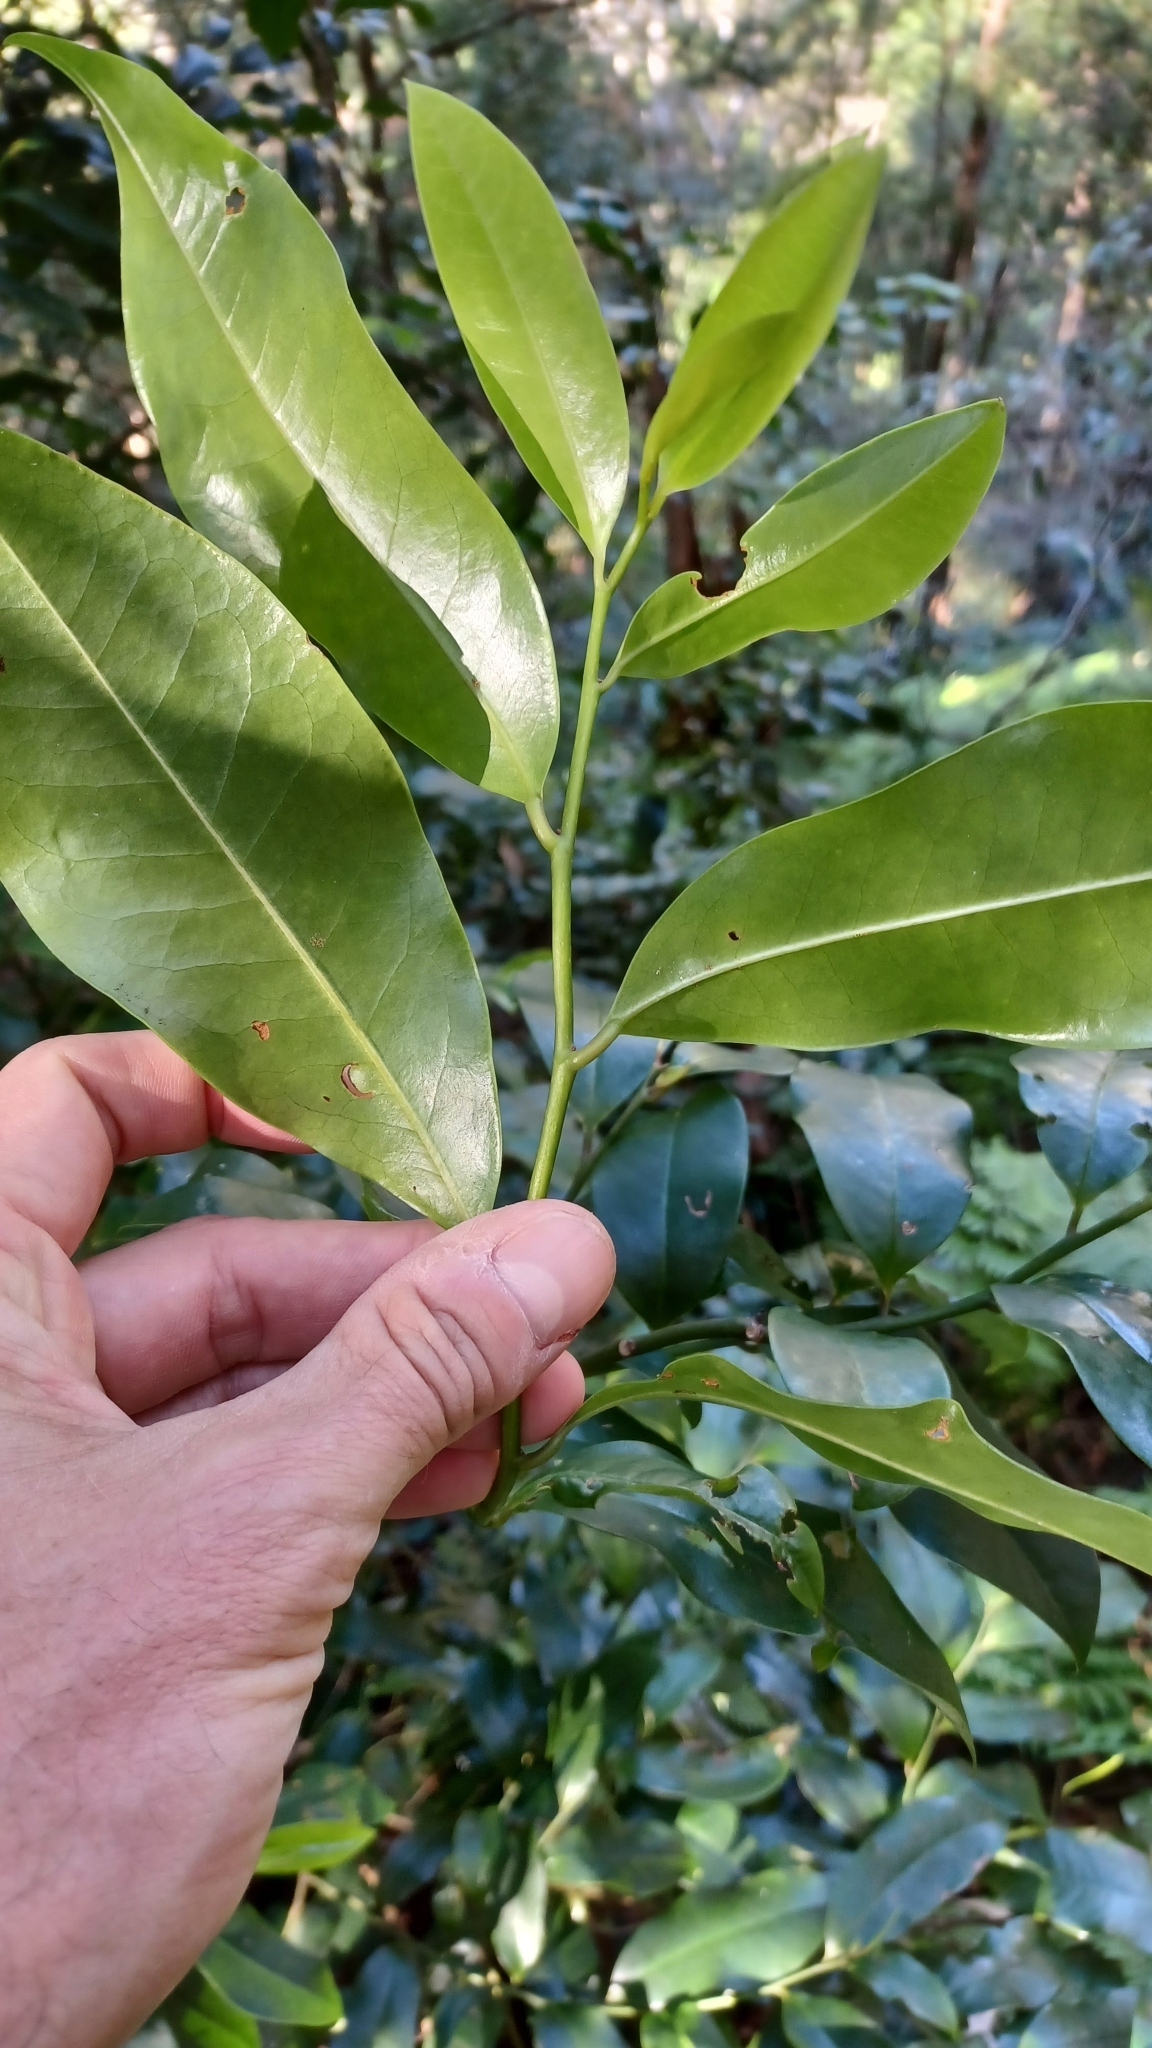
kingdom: Plantae
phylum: Tracheophyta
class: Magnoliopsida
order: Magnoliales
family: Eupomatiaceae
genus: Eupomatia
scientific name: Eupomatia laurina
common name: Bolwarra
